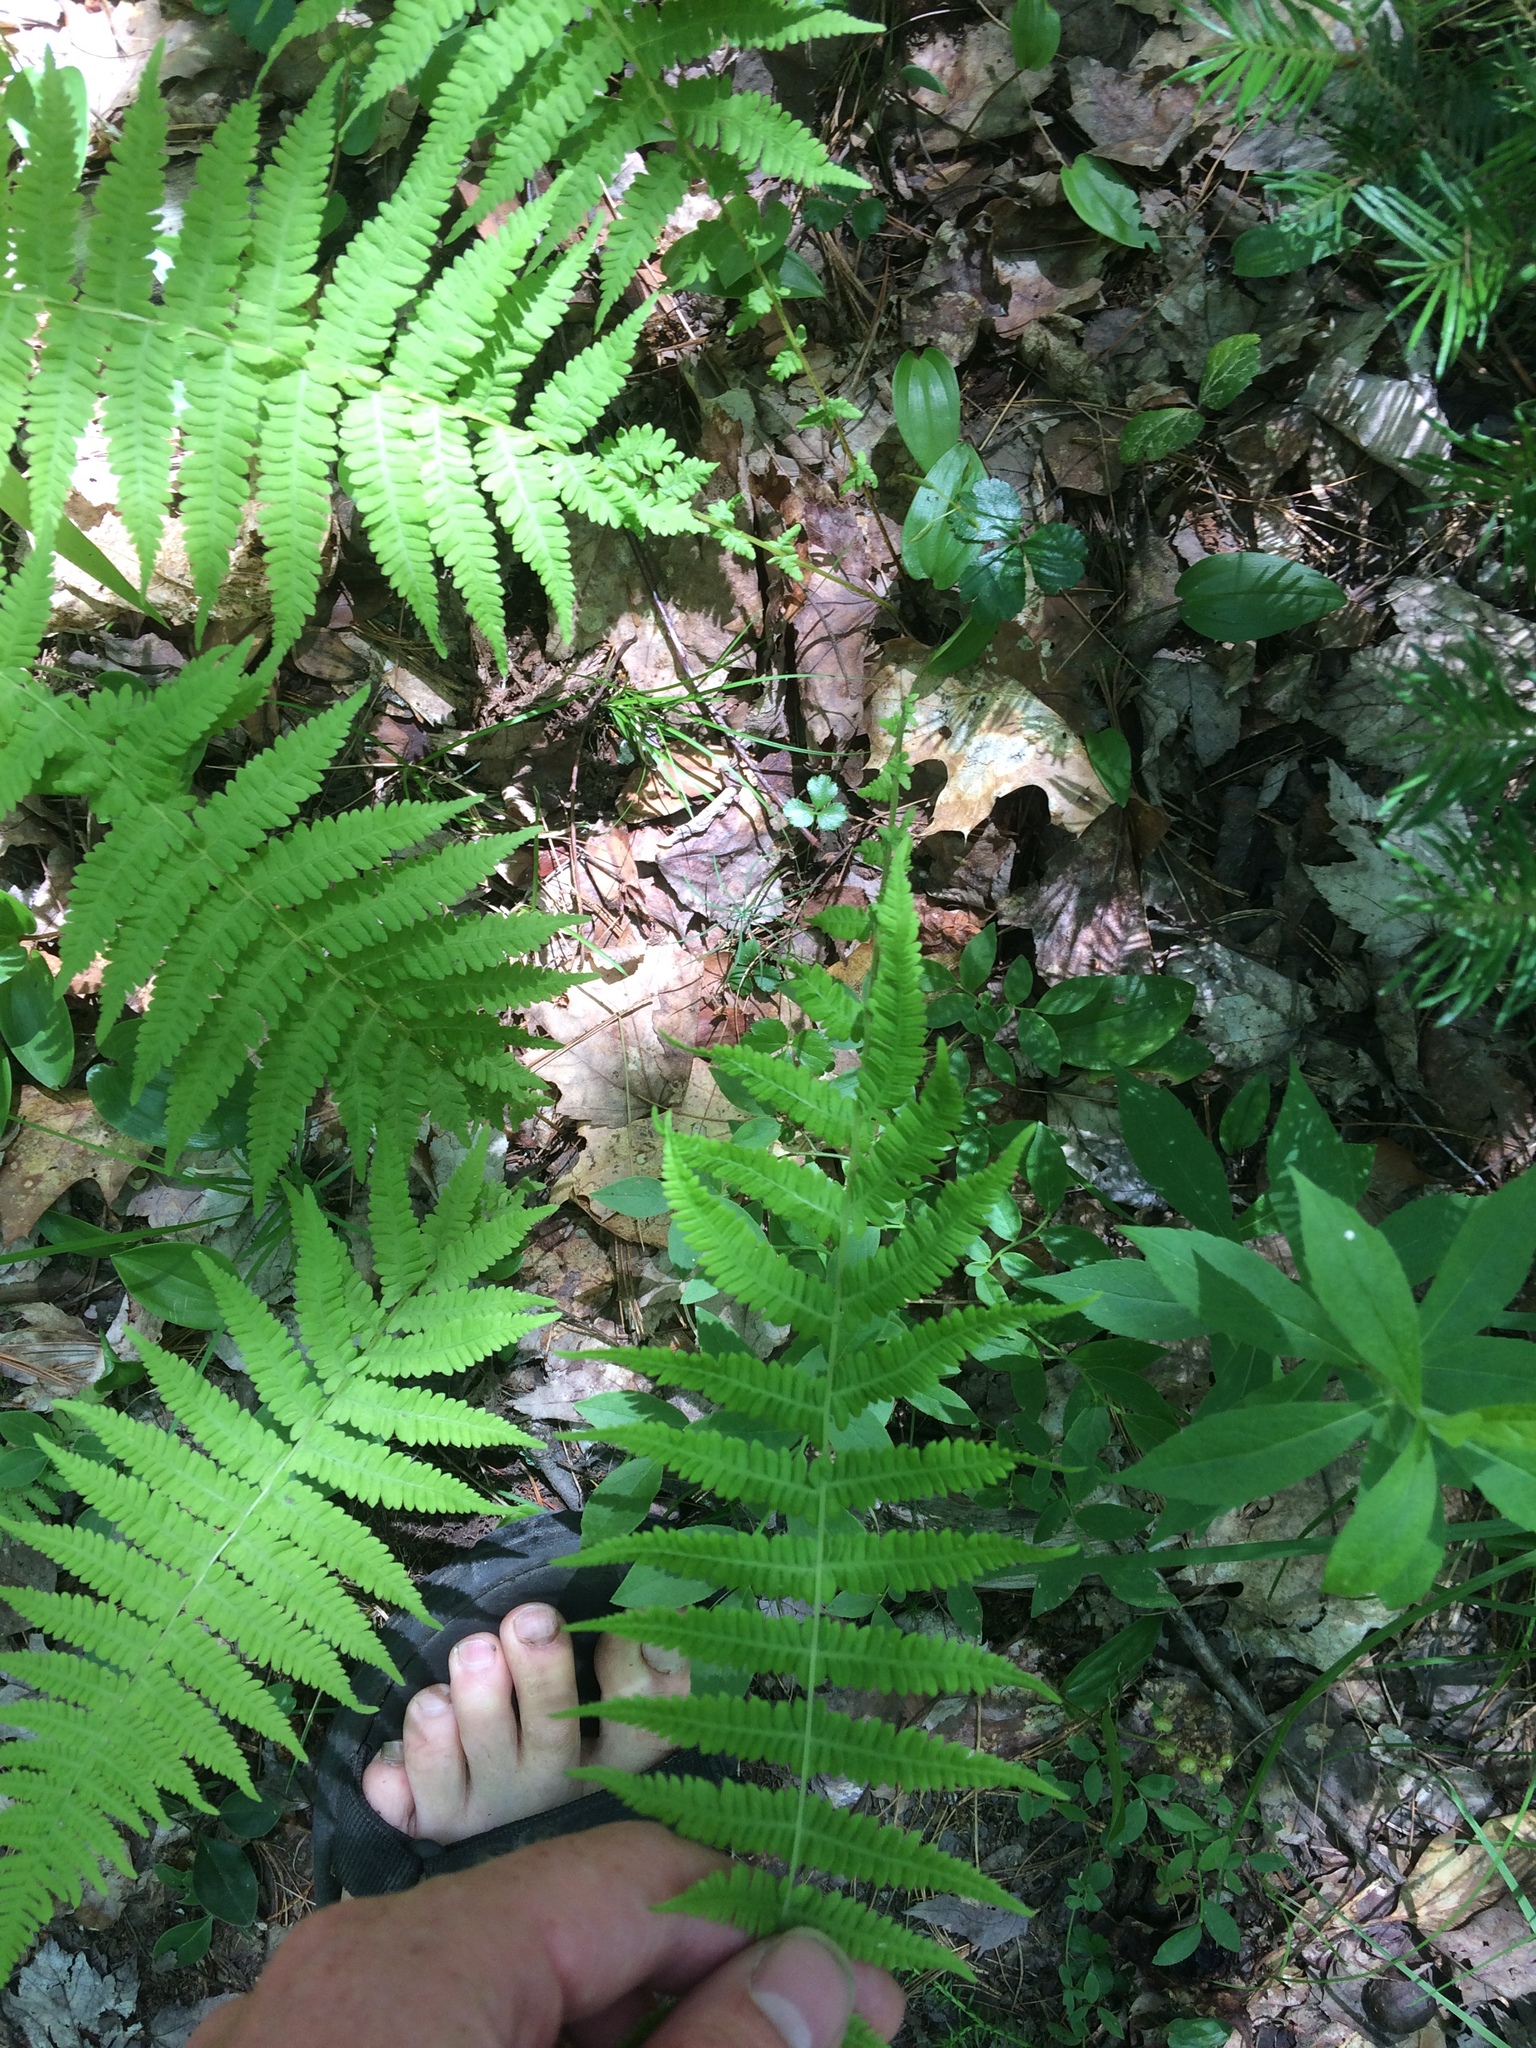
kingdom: Plantae
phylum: Tracheophyta
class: Polypodiopsida
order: Polypodiales
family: Thelypteridaceae
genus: Amauropelta
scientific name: Amauropelta noveboracensis
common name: New york fern
